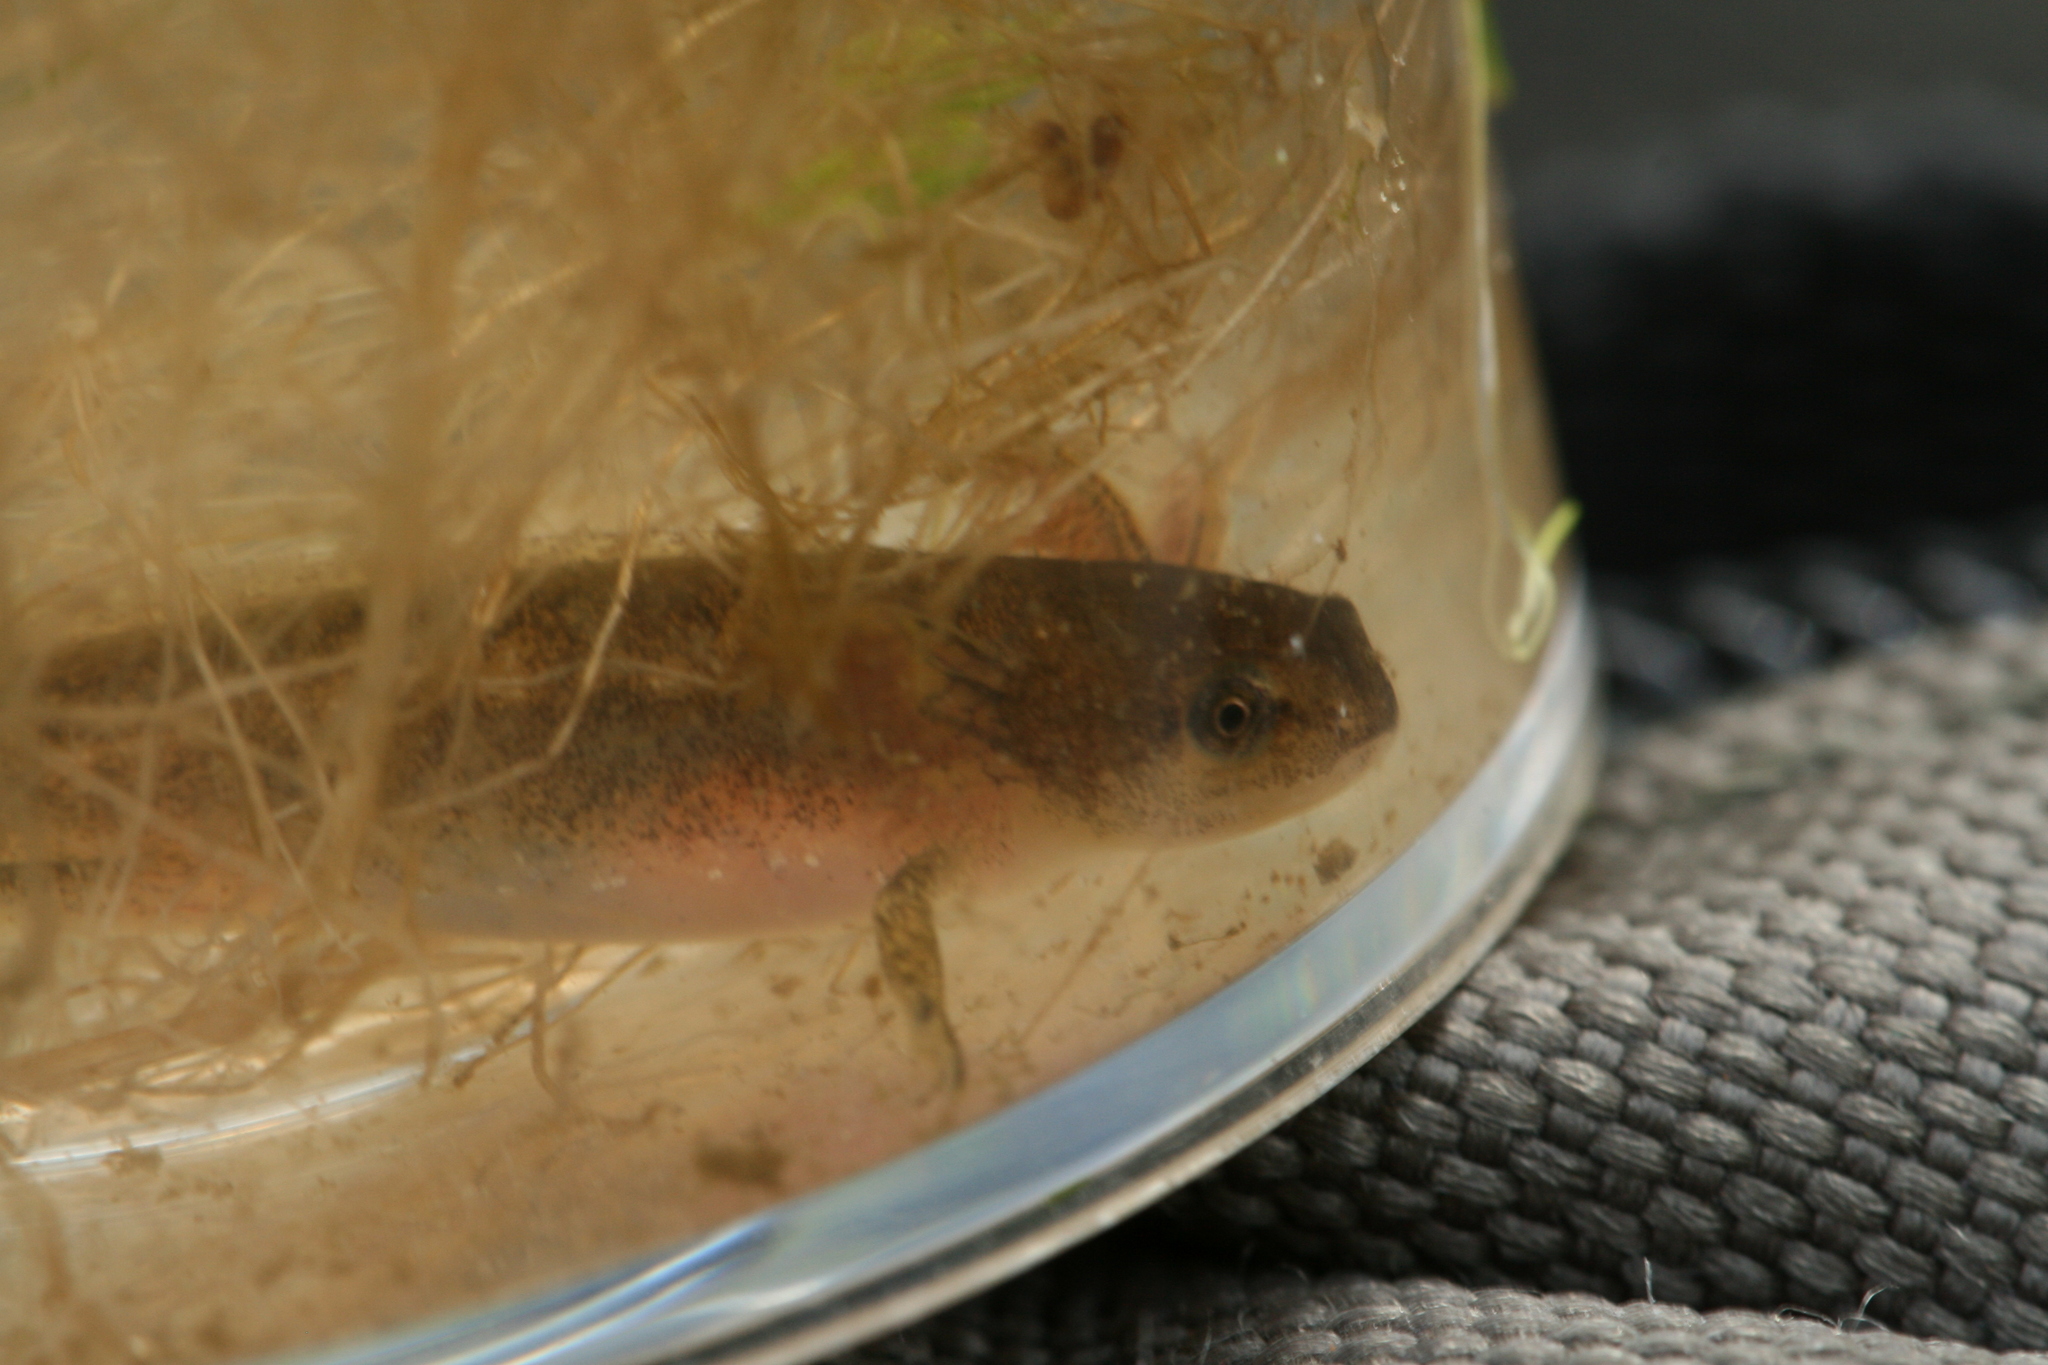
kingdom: Animalia
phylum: Chordata
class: Amphibia
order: Caudata
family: Salamandridae
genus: Lissotriton
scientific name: Lissotriton
